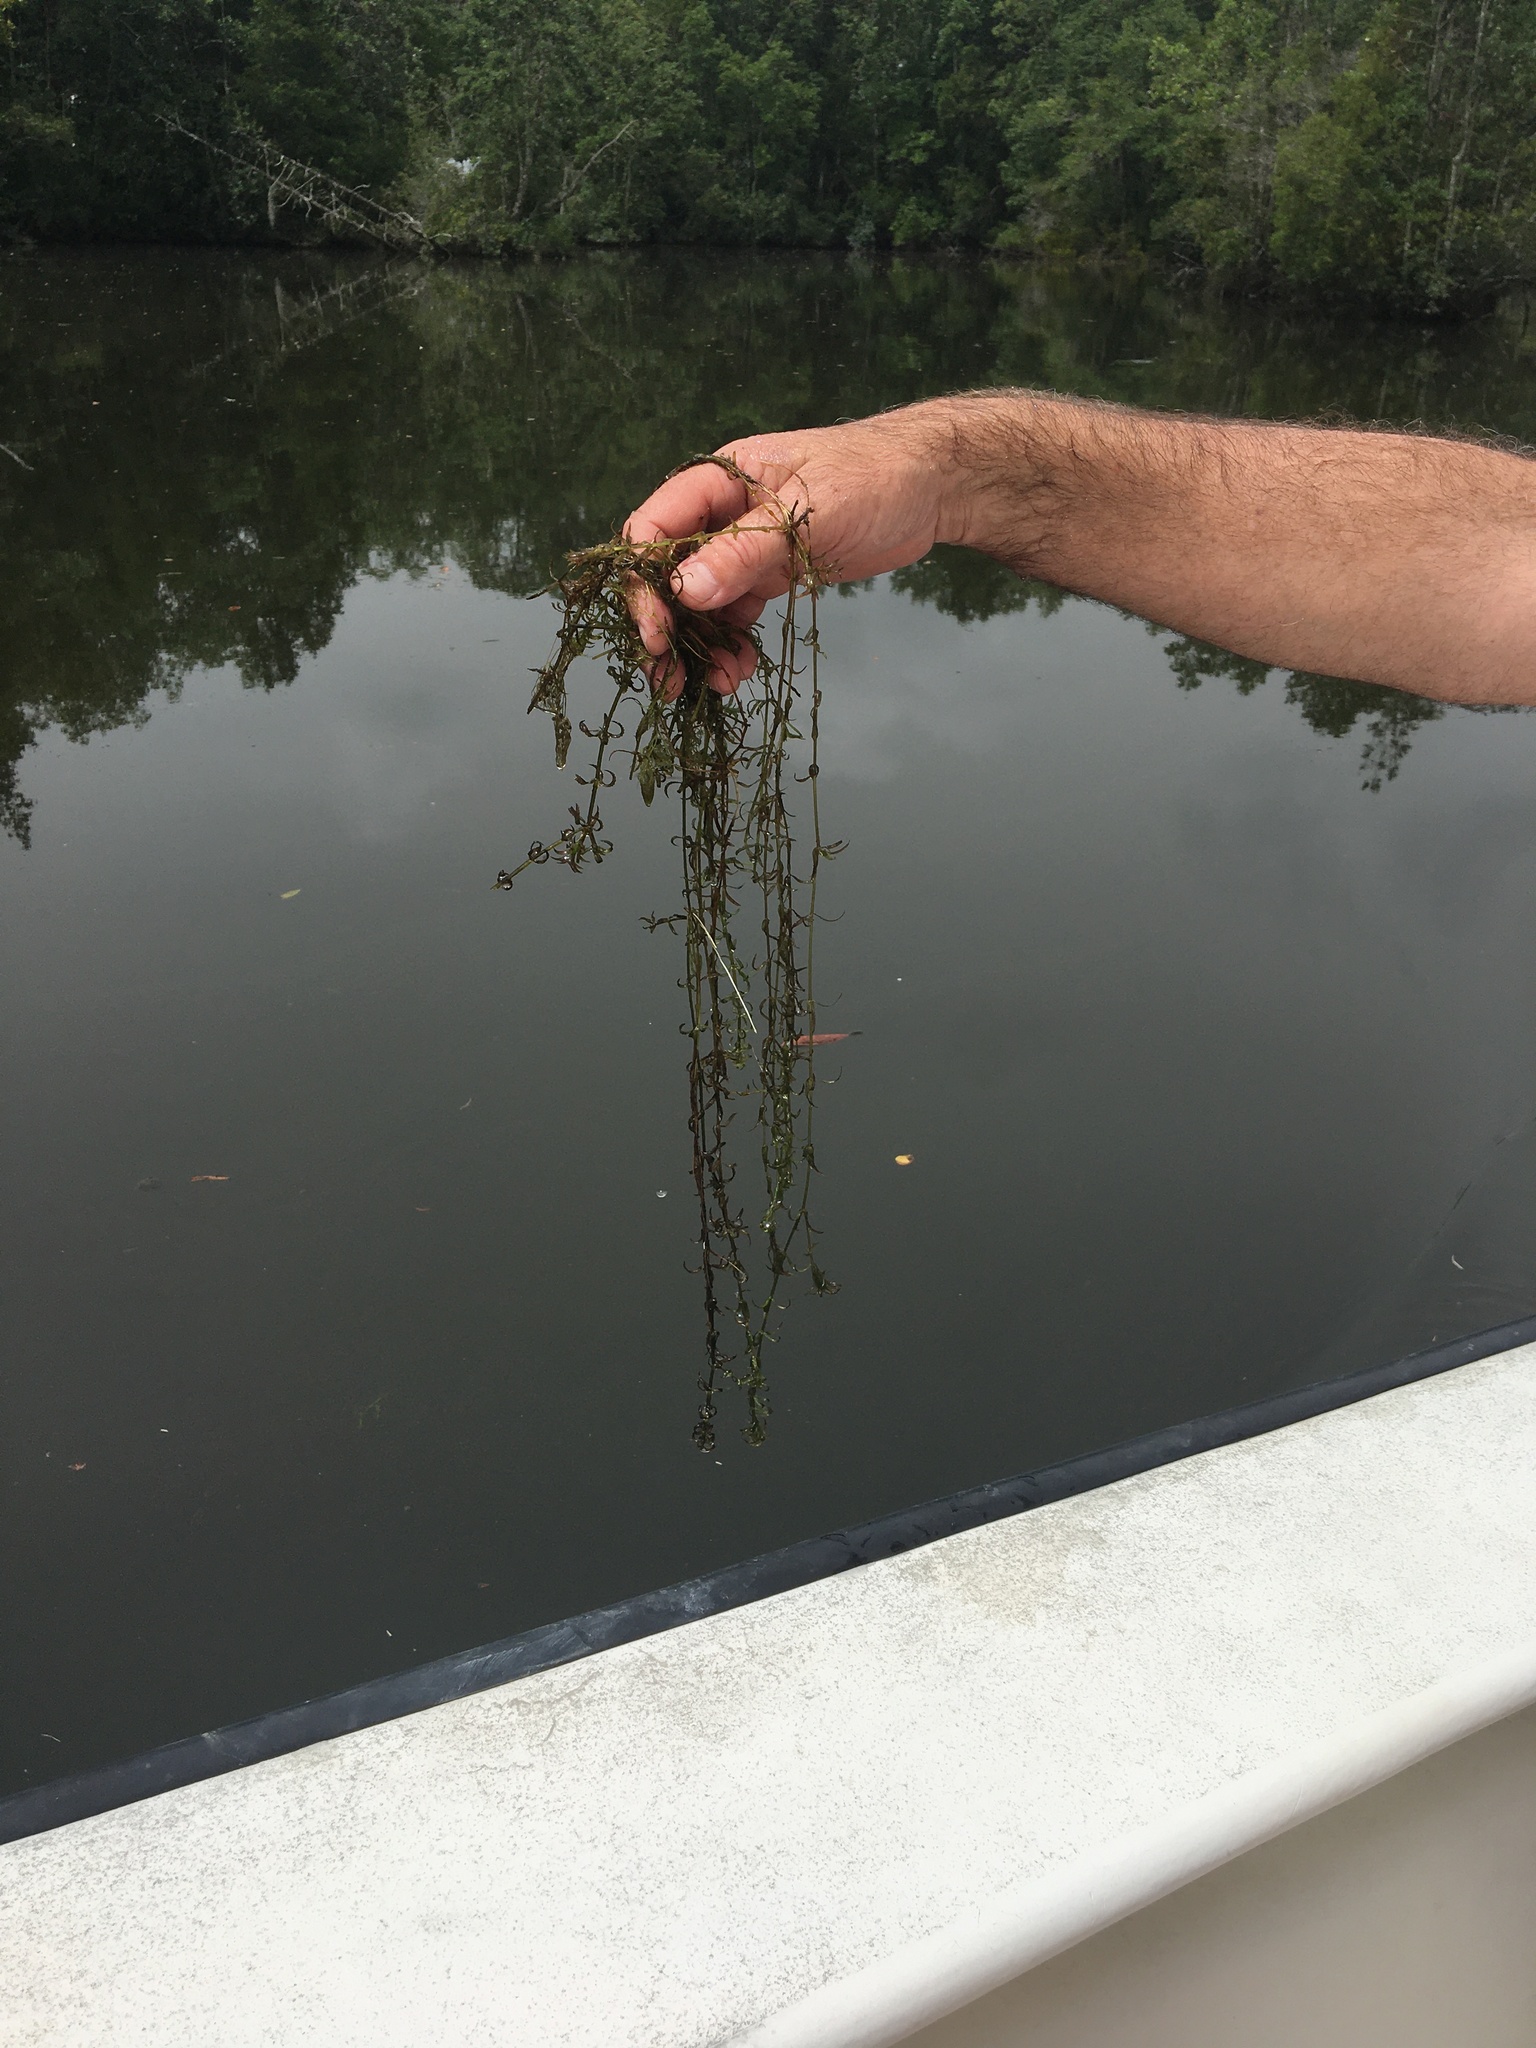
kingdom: Plantae
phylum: Tracheophyta
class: Liliopsida
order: Alismatales
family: Hydrocharitaceae
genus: Hydrilla
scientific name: Hydrilla verticillata
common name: Florida-elodea
